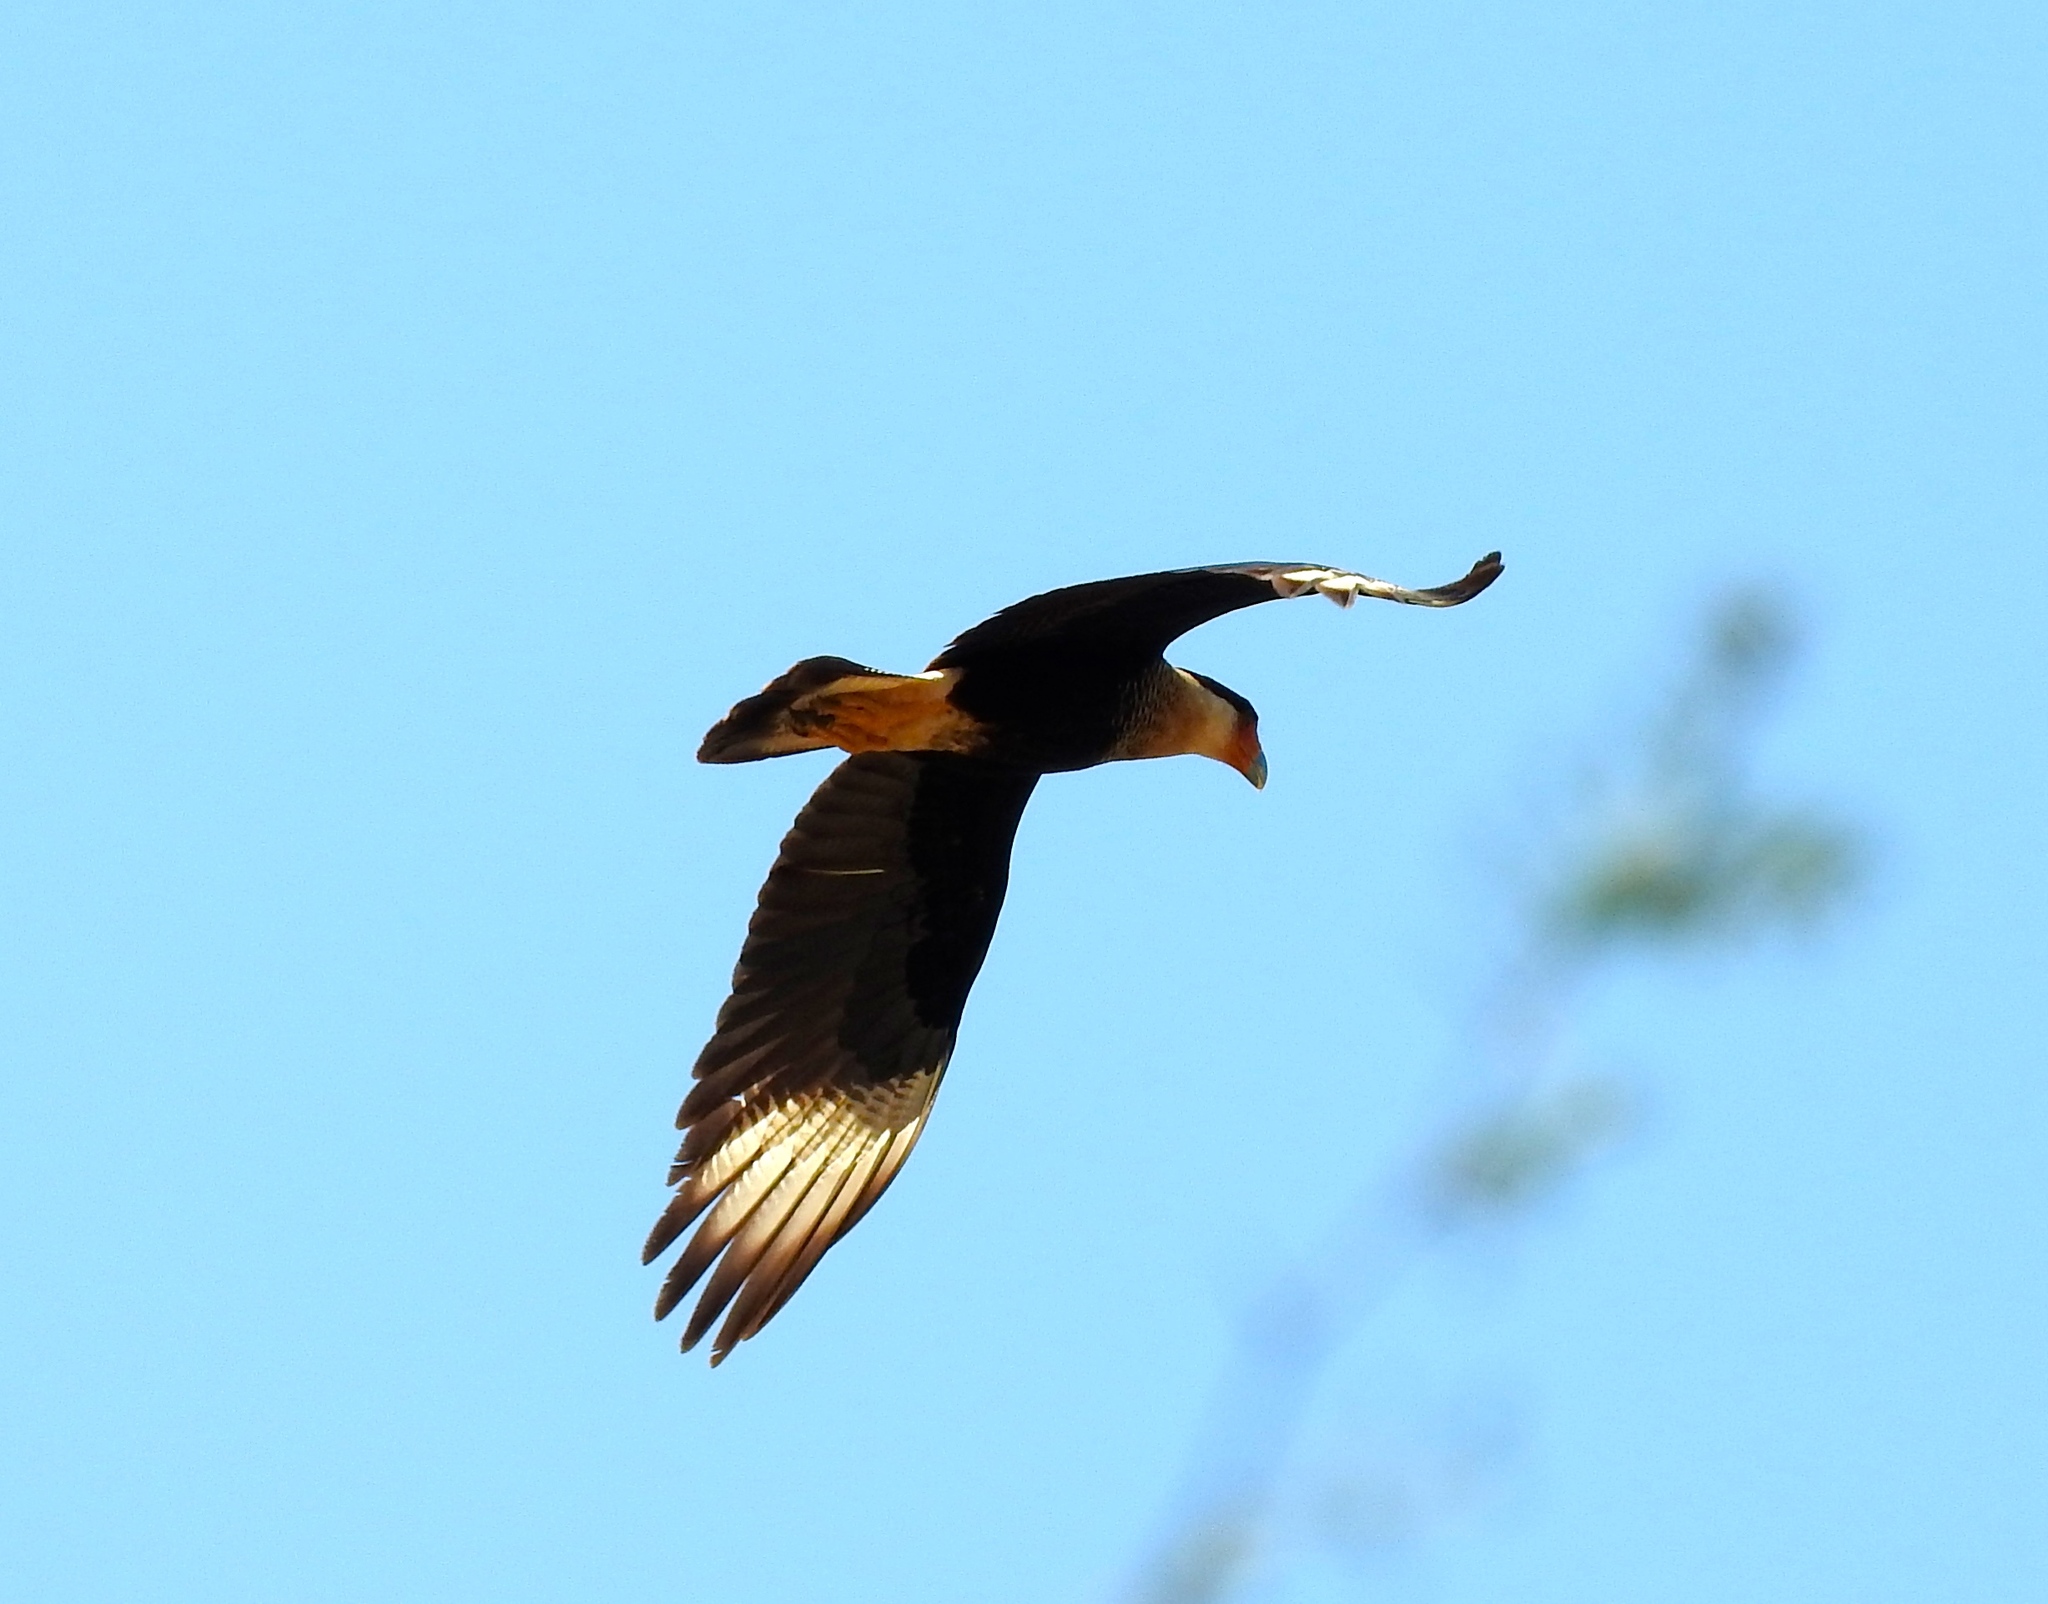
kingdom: Animalia
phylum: Chordata
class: Aves
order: Falconiformes
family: Falconidae
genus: Caracara
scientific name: Caracara plancus
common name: Southern caracara
